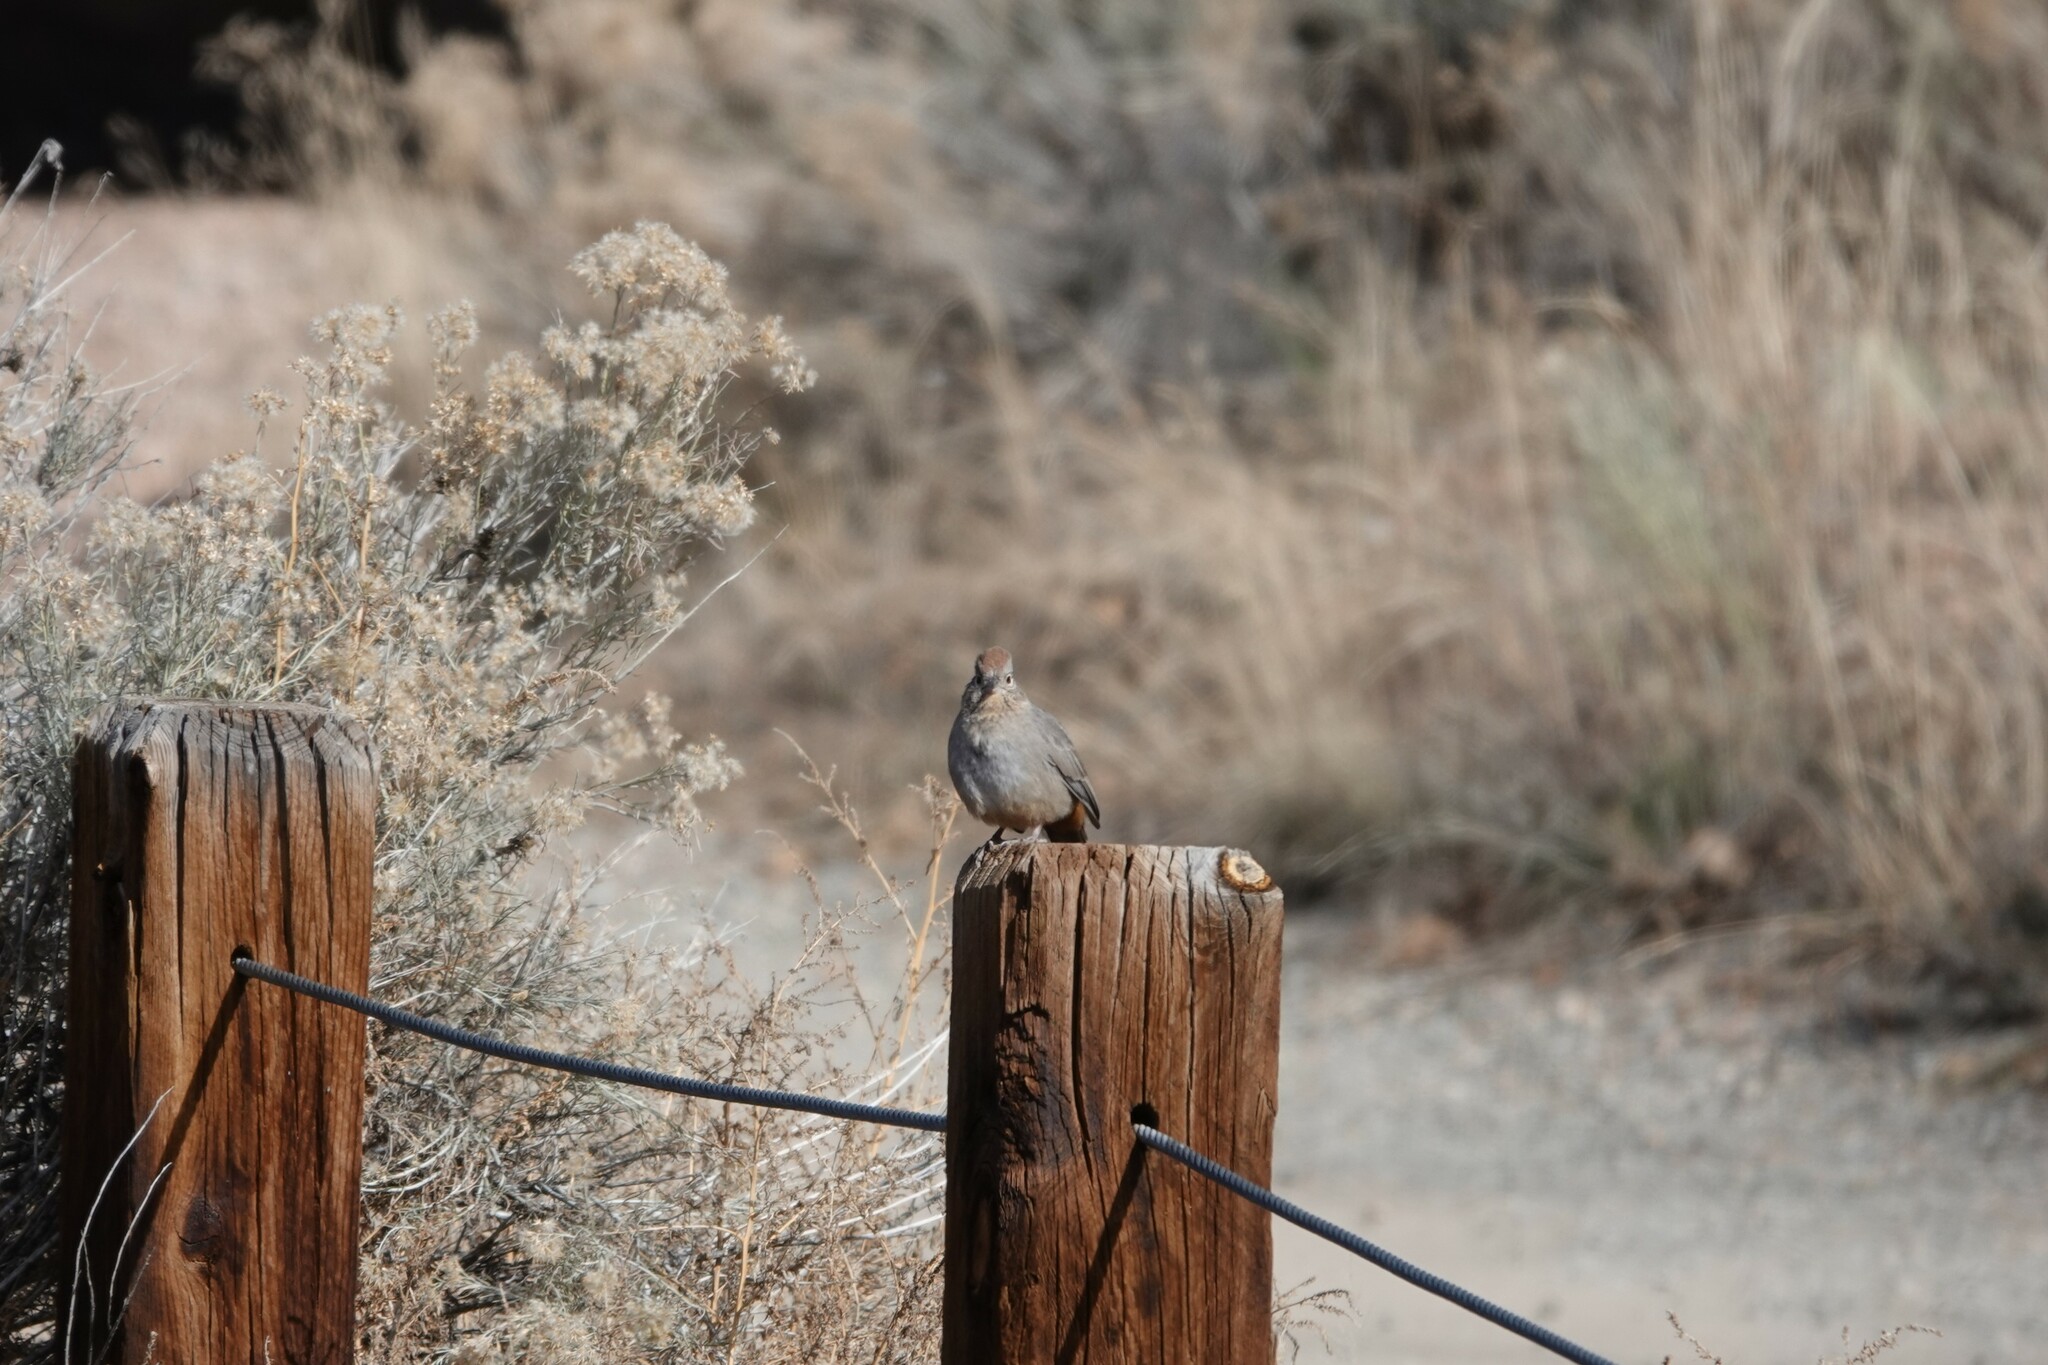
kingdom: Animalia
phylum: Chordata
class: Aves
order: Passeriformes
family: Passerellidae
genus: Melozone
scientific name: Melozone fusca
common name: Canyon towhee
